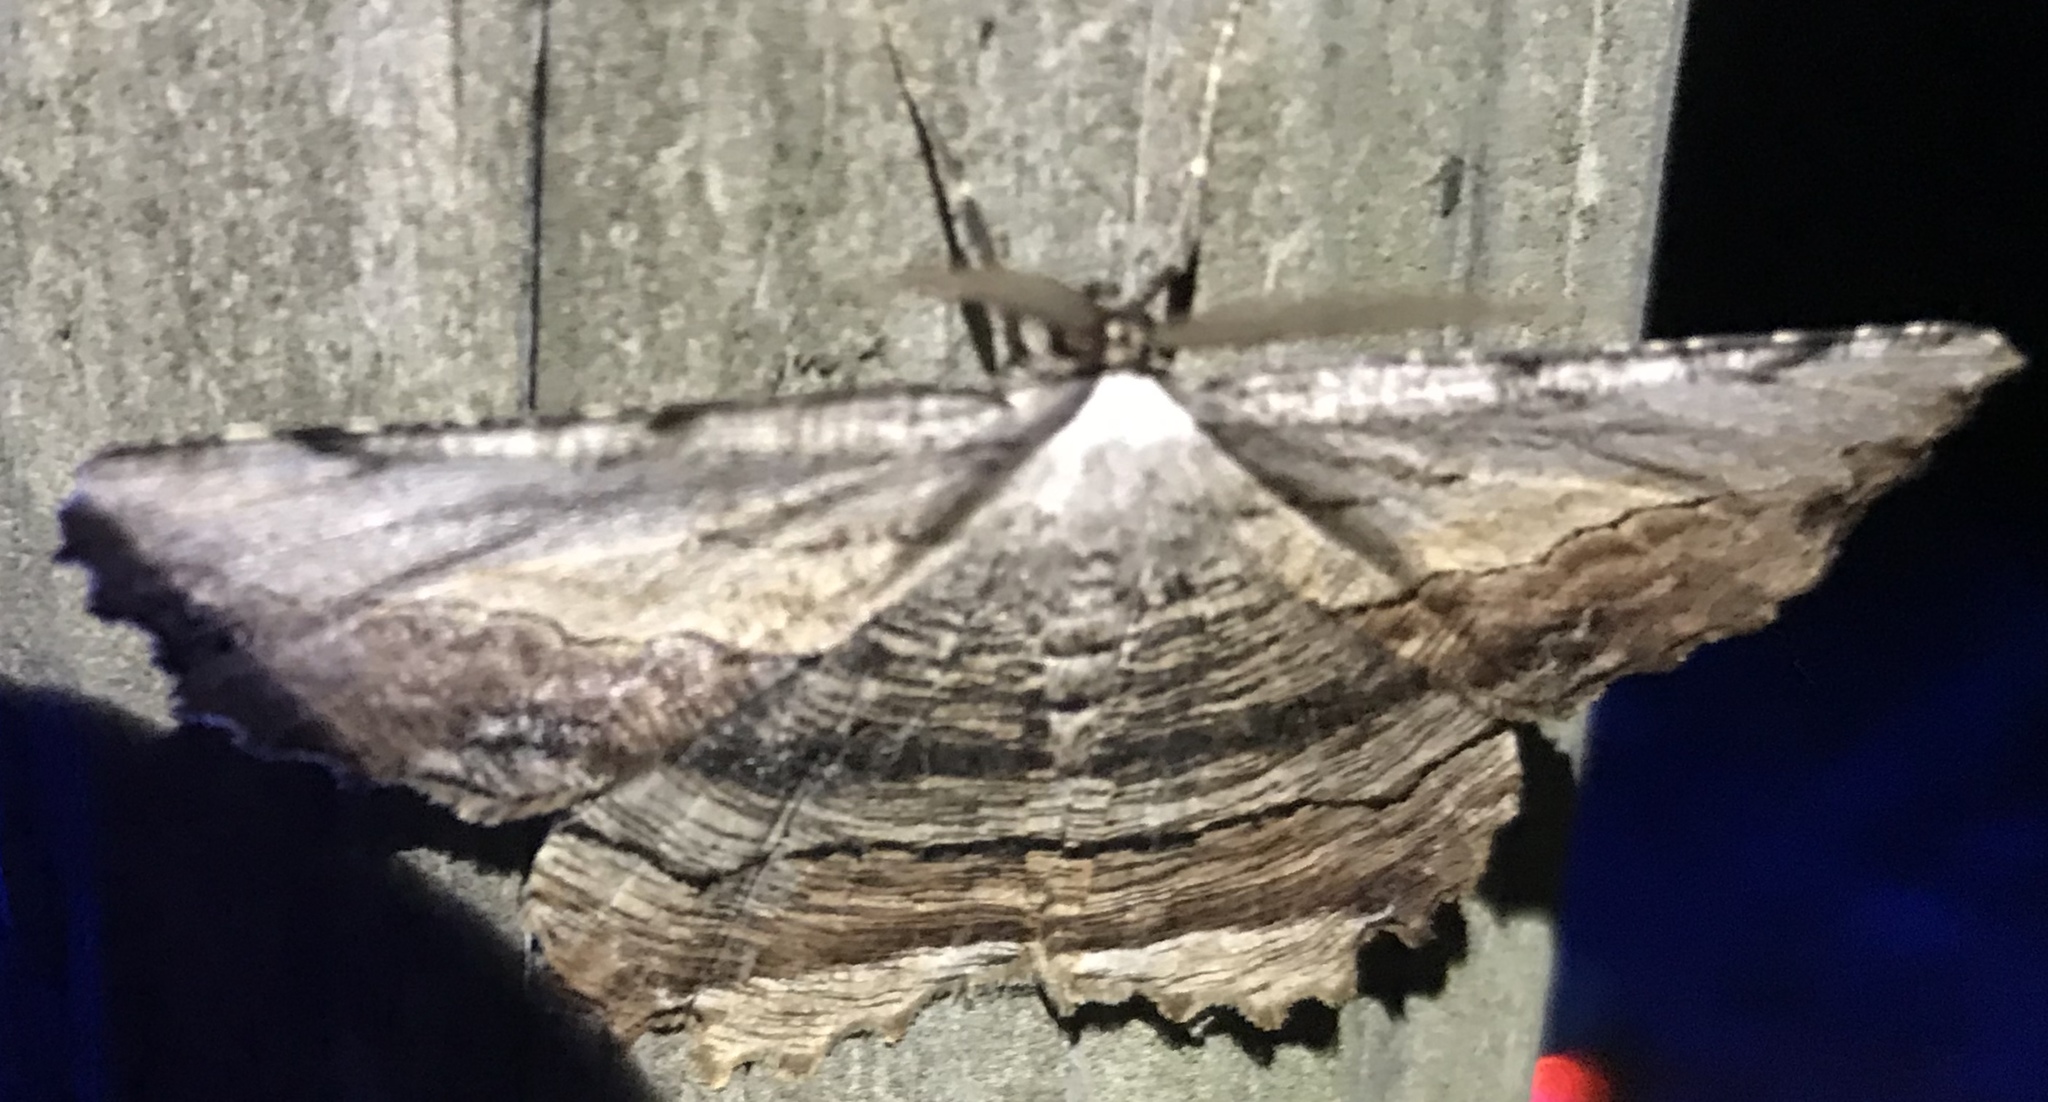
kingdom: Animalia
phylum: Arthropoda
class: Insecta
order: Lepidoptera
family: Geometridae
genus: Lytrosis
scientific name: Lytrosis unitaria
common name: Common lytrosis
